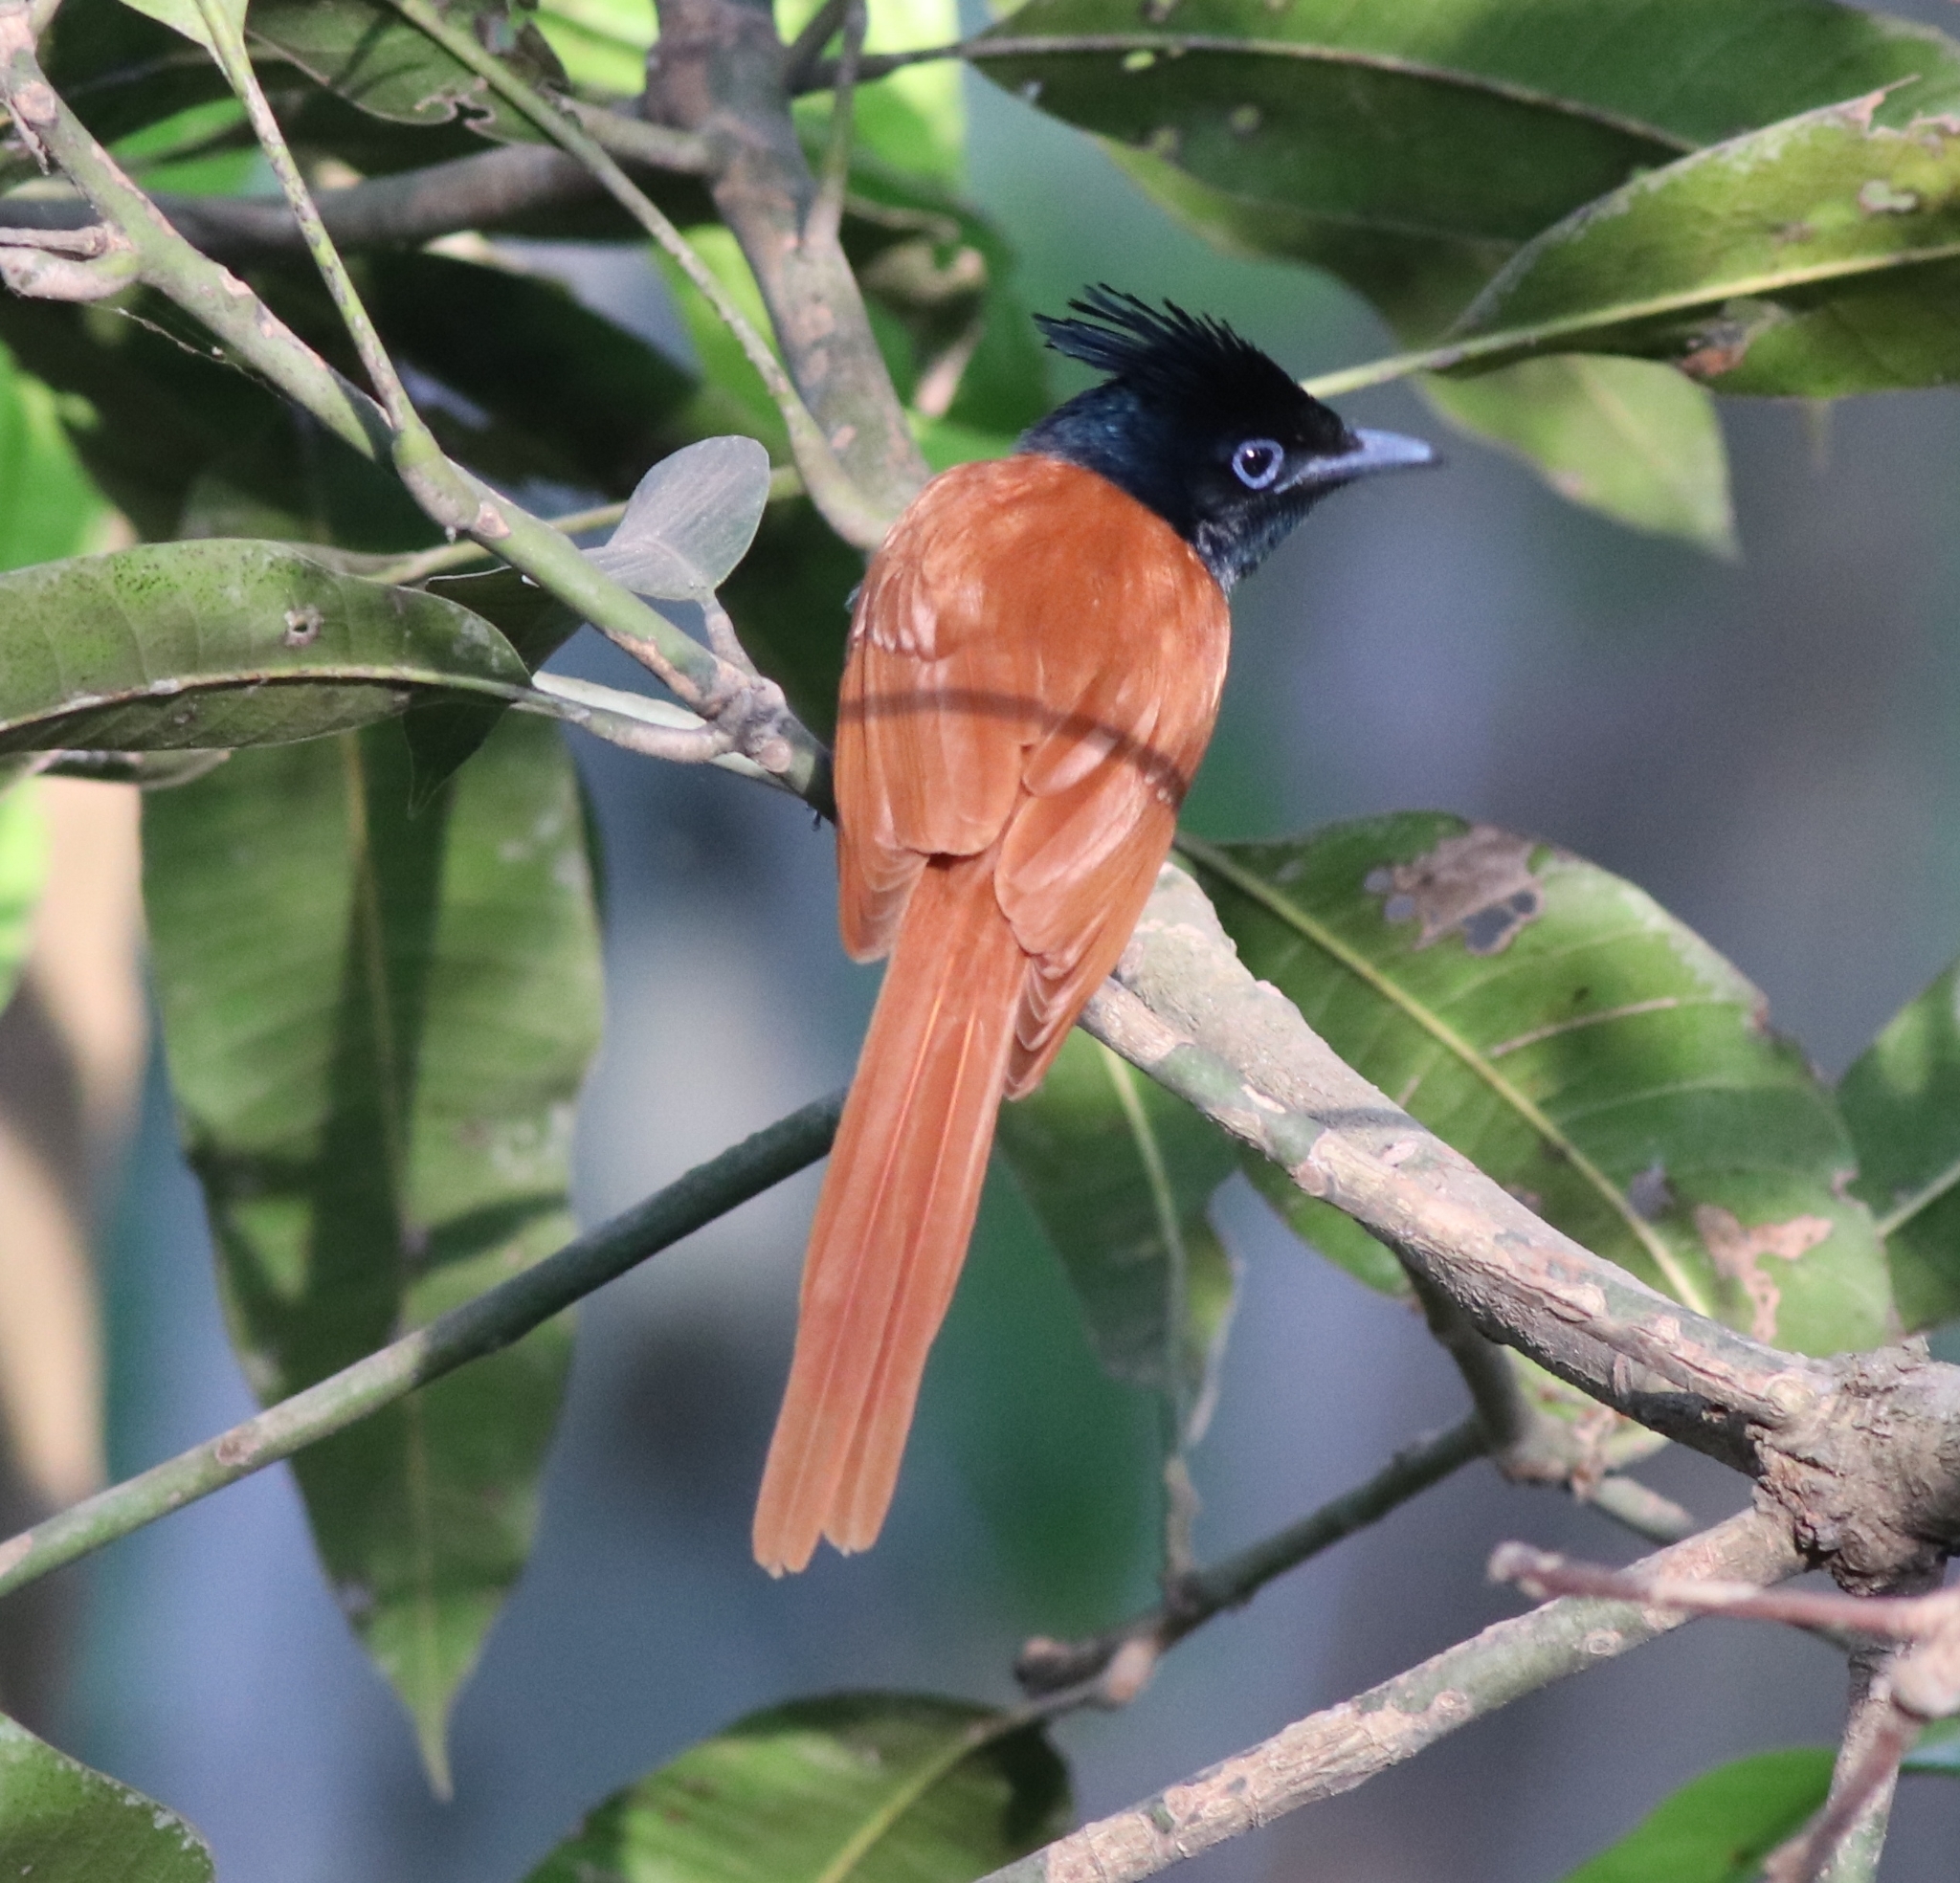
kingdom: Animalia
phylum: Chordata
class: Aves
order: Passeriformes
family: Monarchidae
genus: Terpsiphone
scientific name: Terpsiphone paradisi
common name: Indian paradise flycatcher
